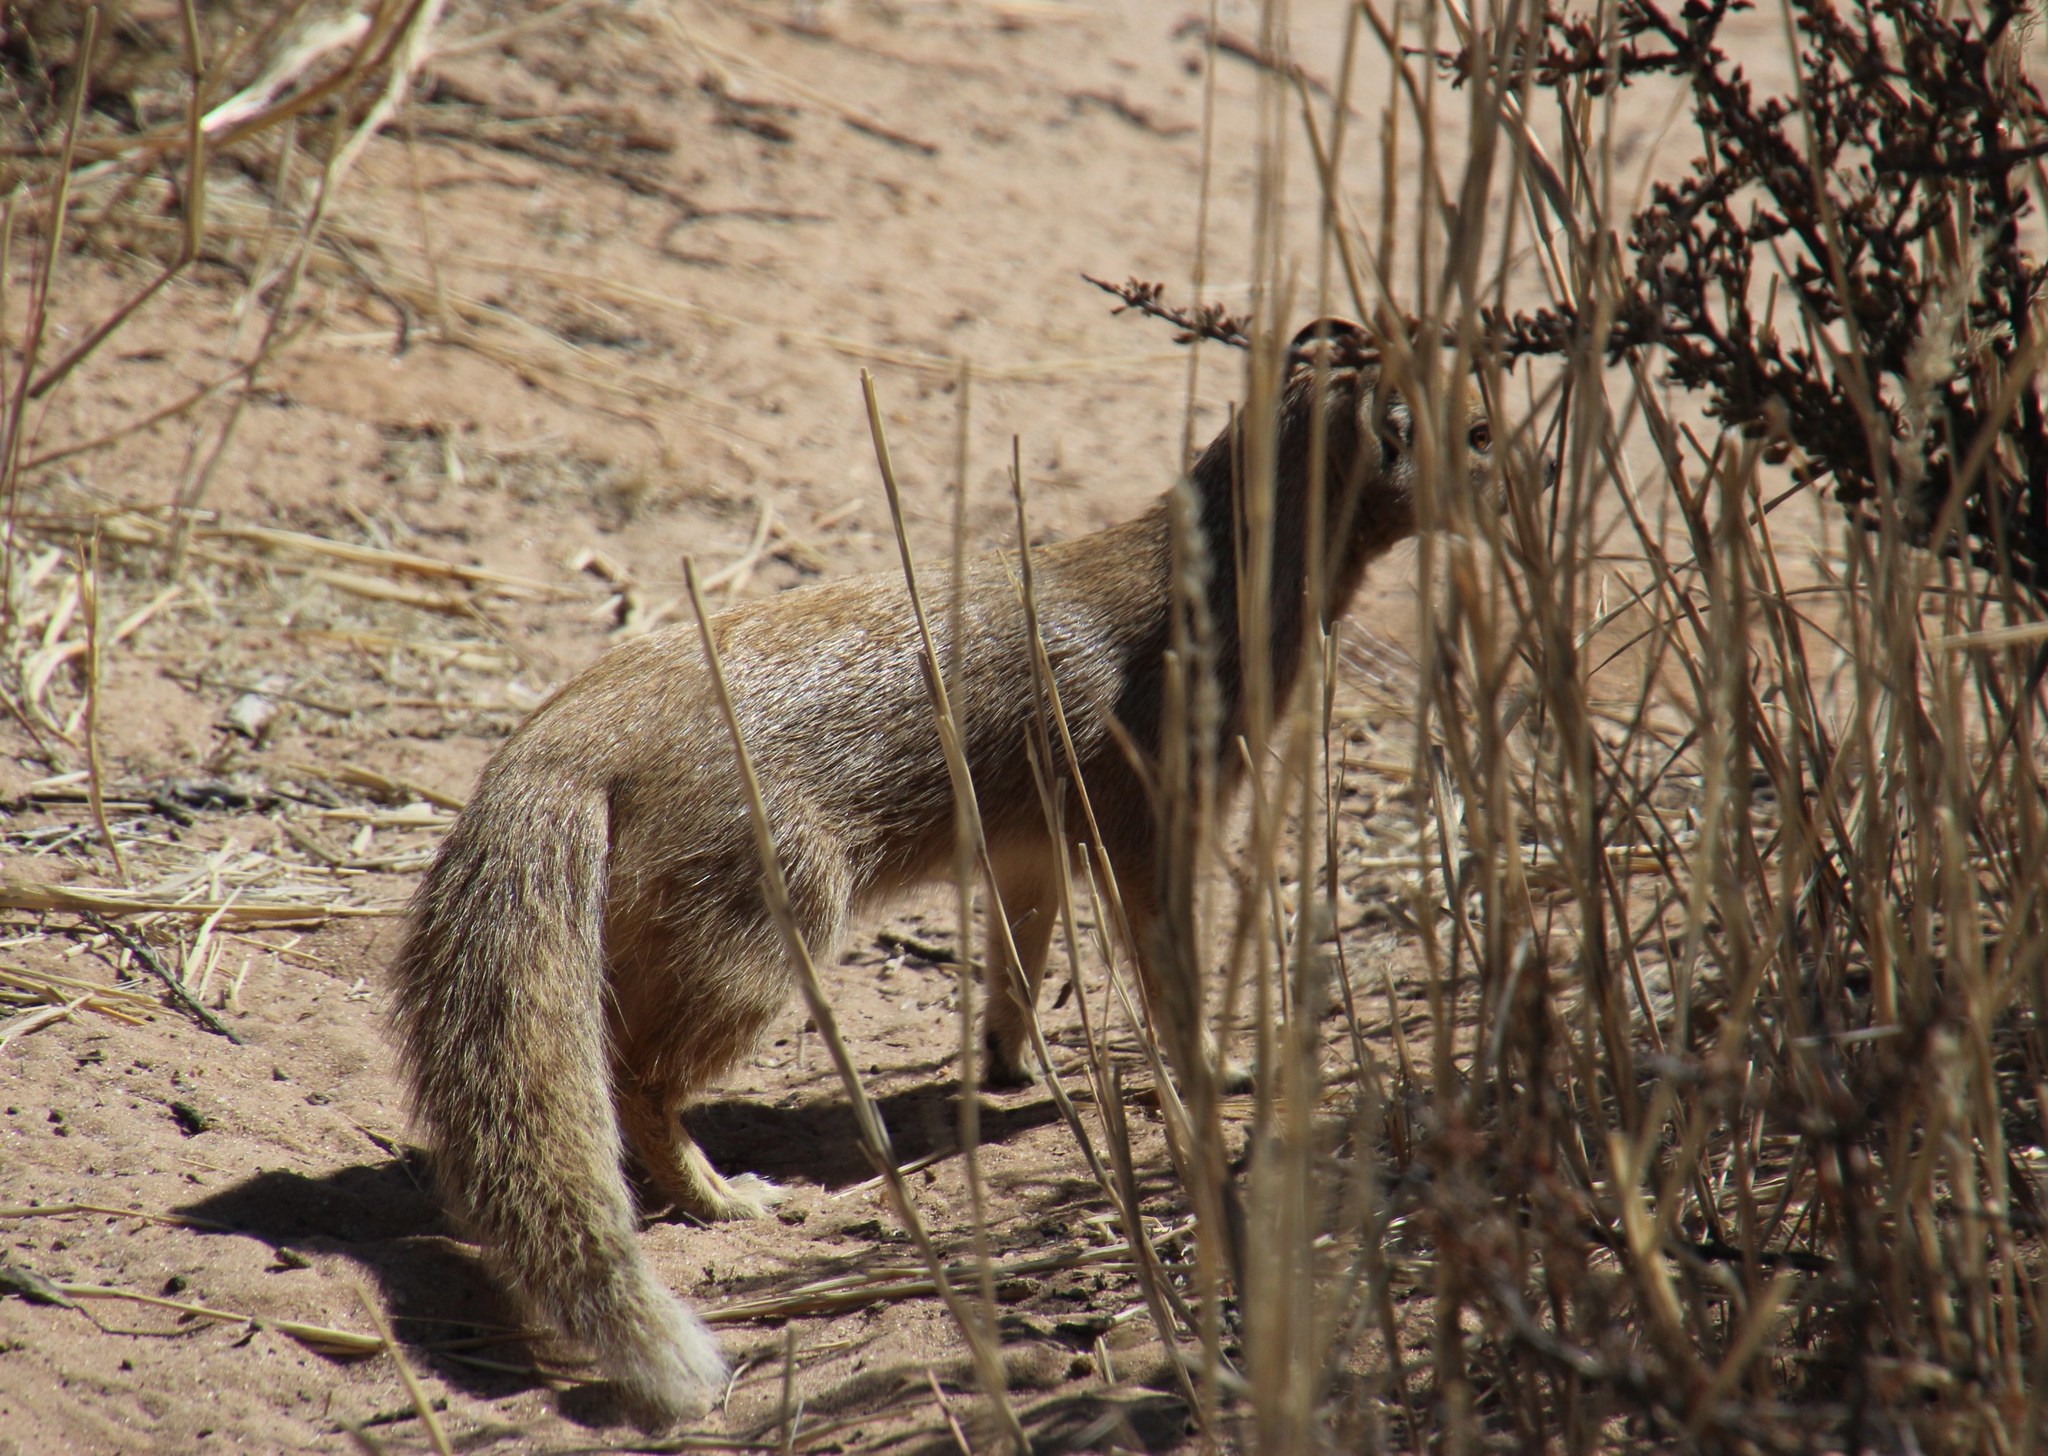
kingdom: Animalia
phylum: Chordata
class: Mammalia
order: Carnivora
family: Herpestidae
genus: Cynictis
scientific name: Cynictis penicillata
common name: Yellow mongoose
